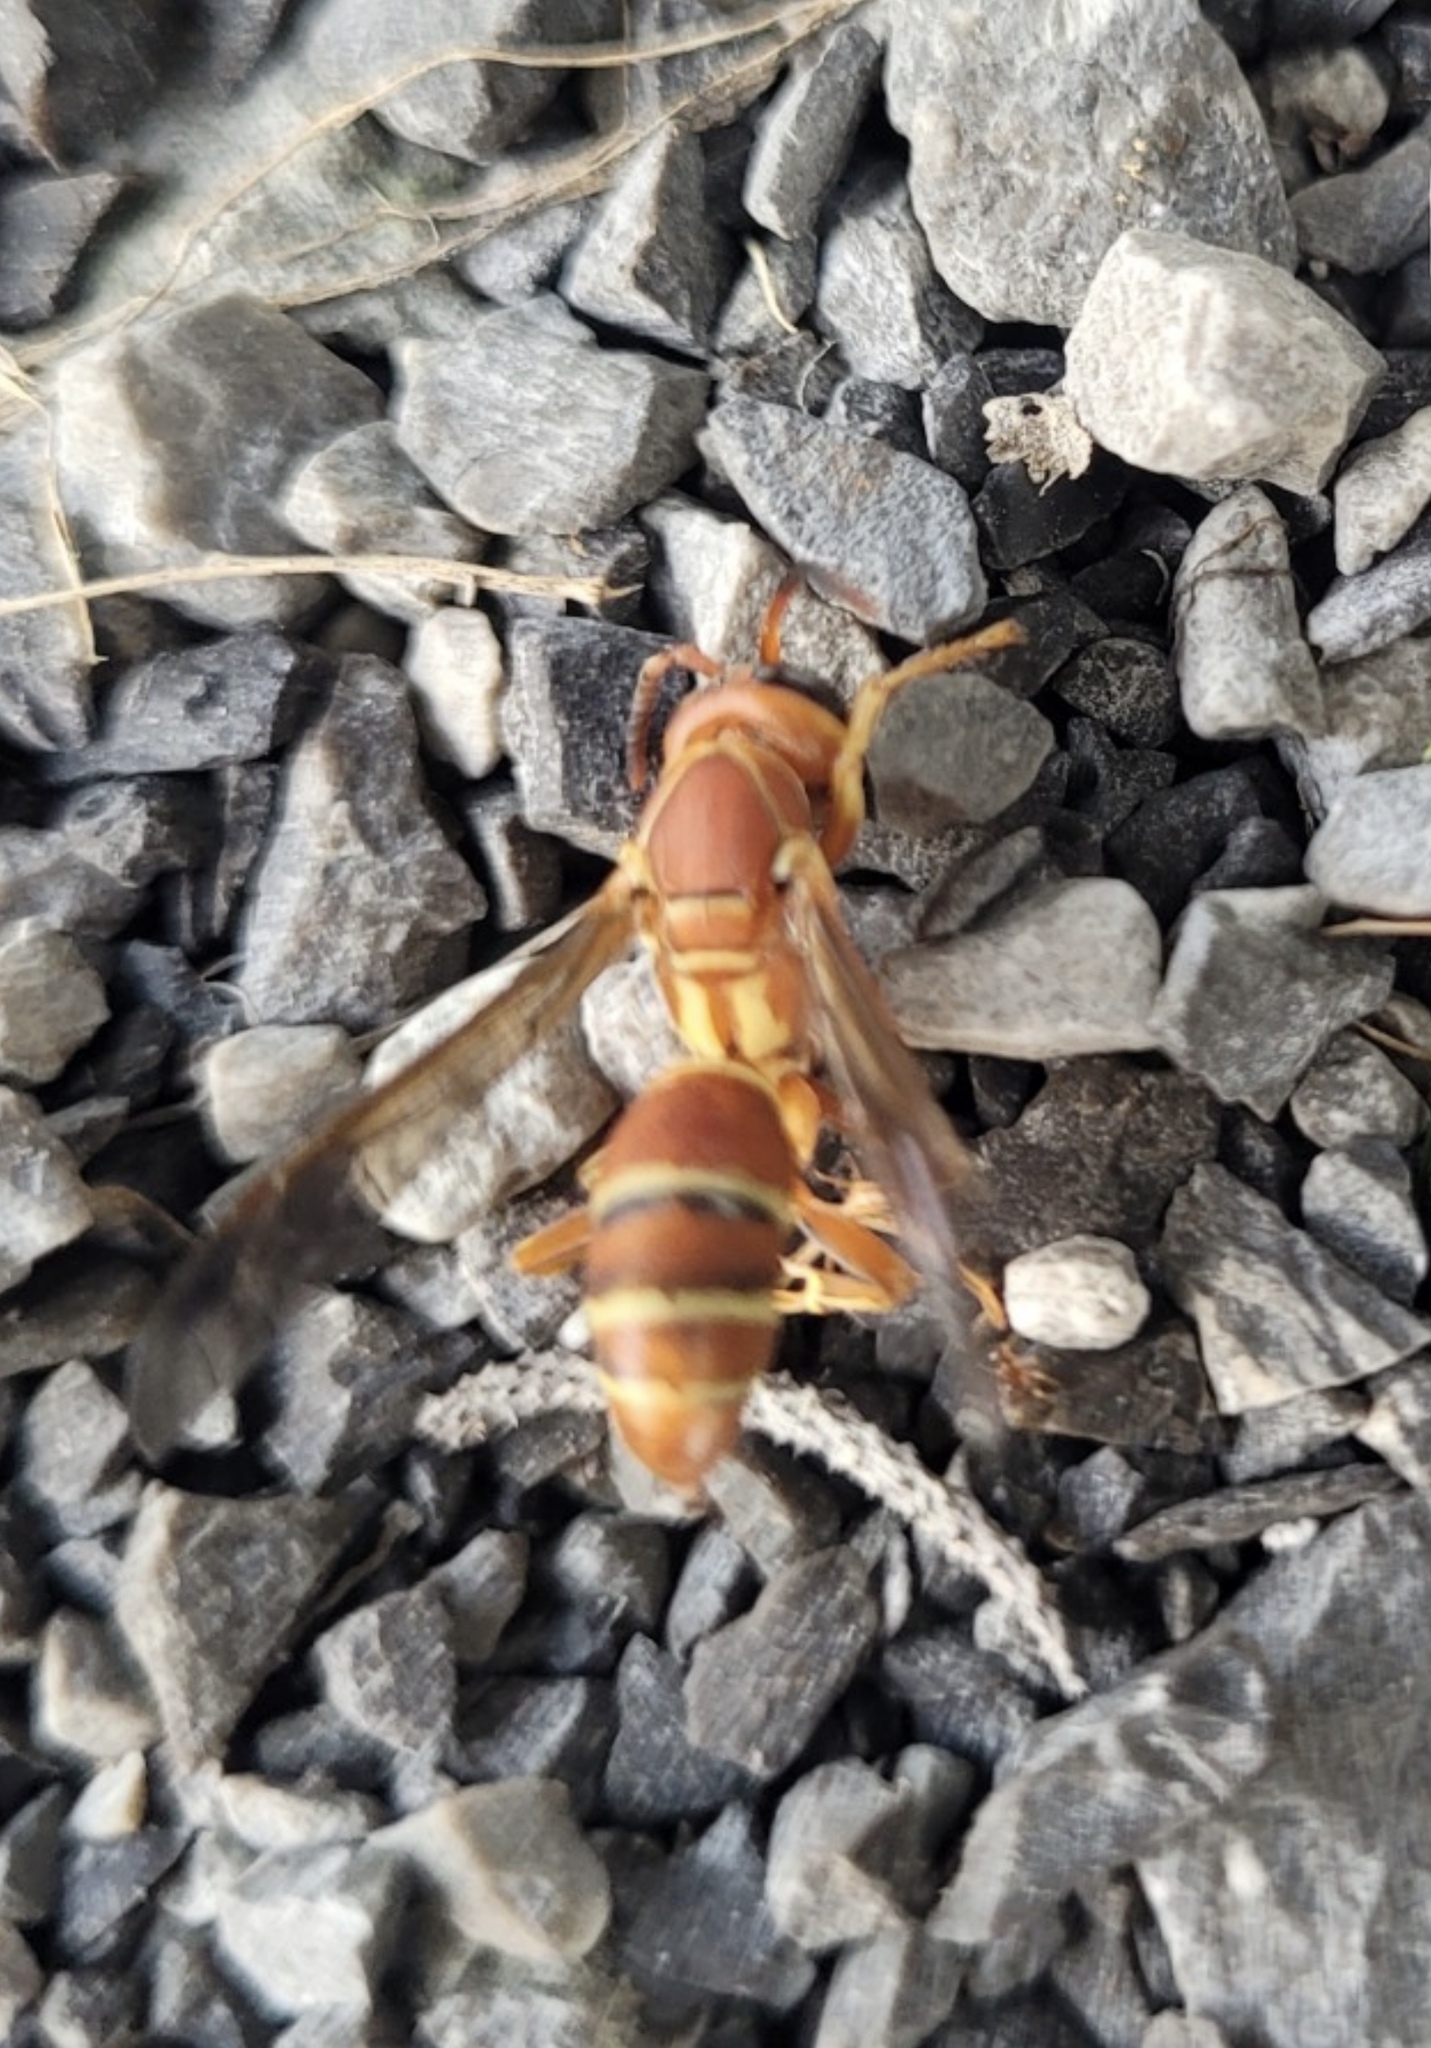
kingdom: Animalia
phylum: Arthropoda
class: Insecta
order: Hymenoptera
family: Eumenidae
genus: Polistes
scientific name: Polistes bellicosus
